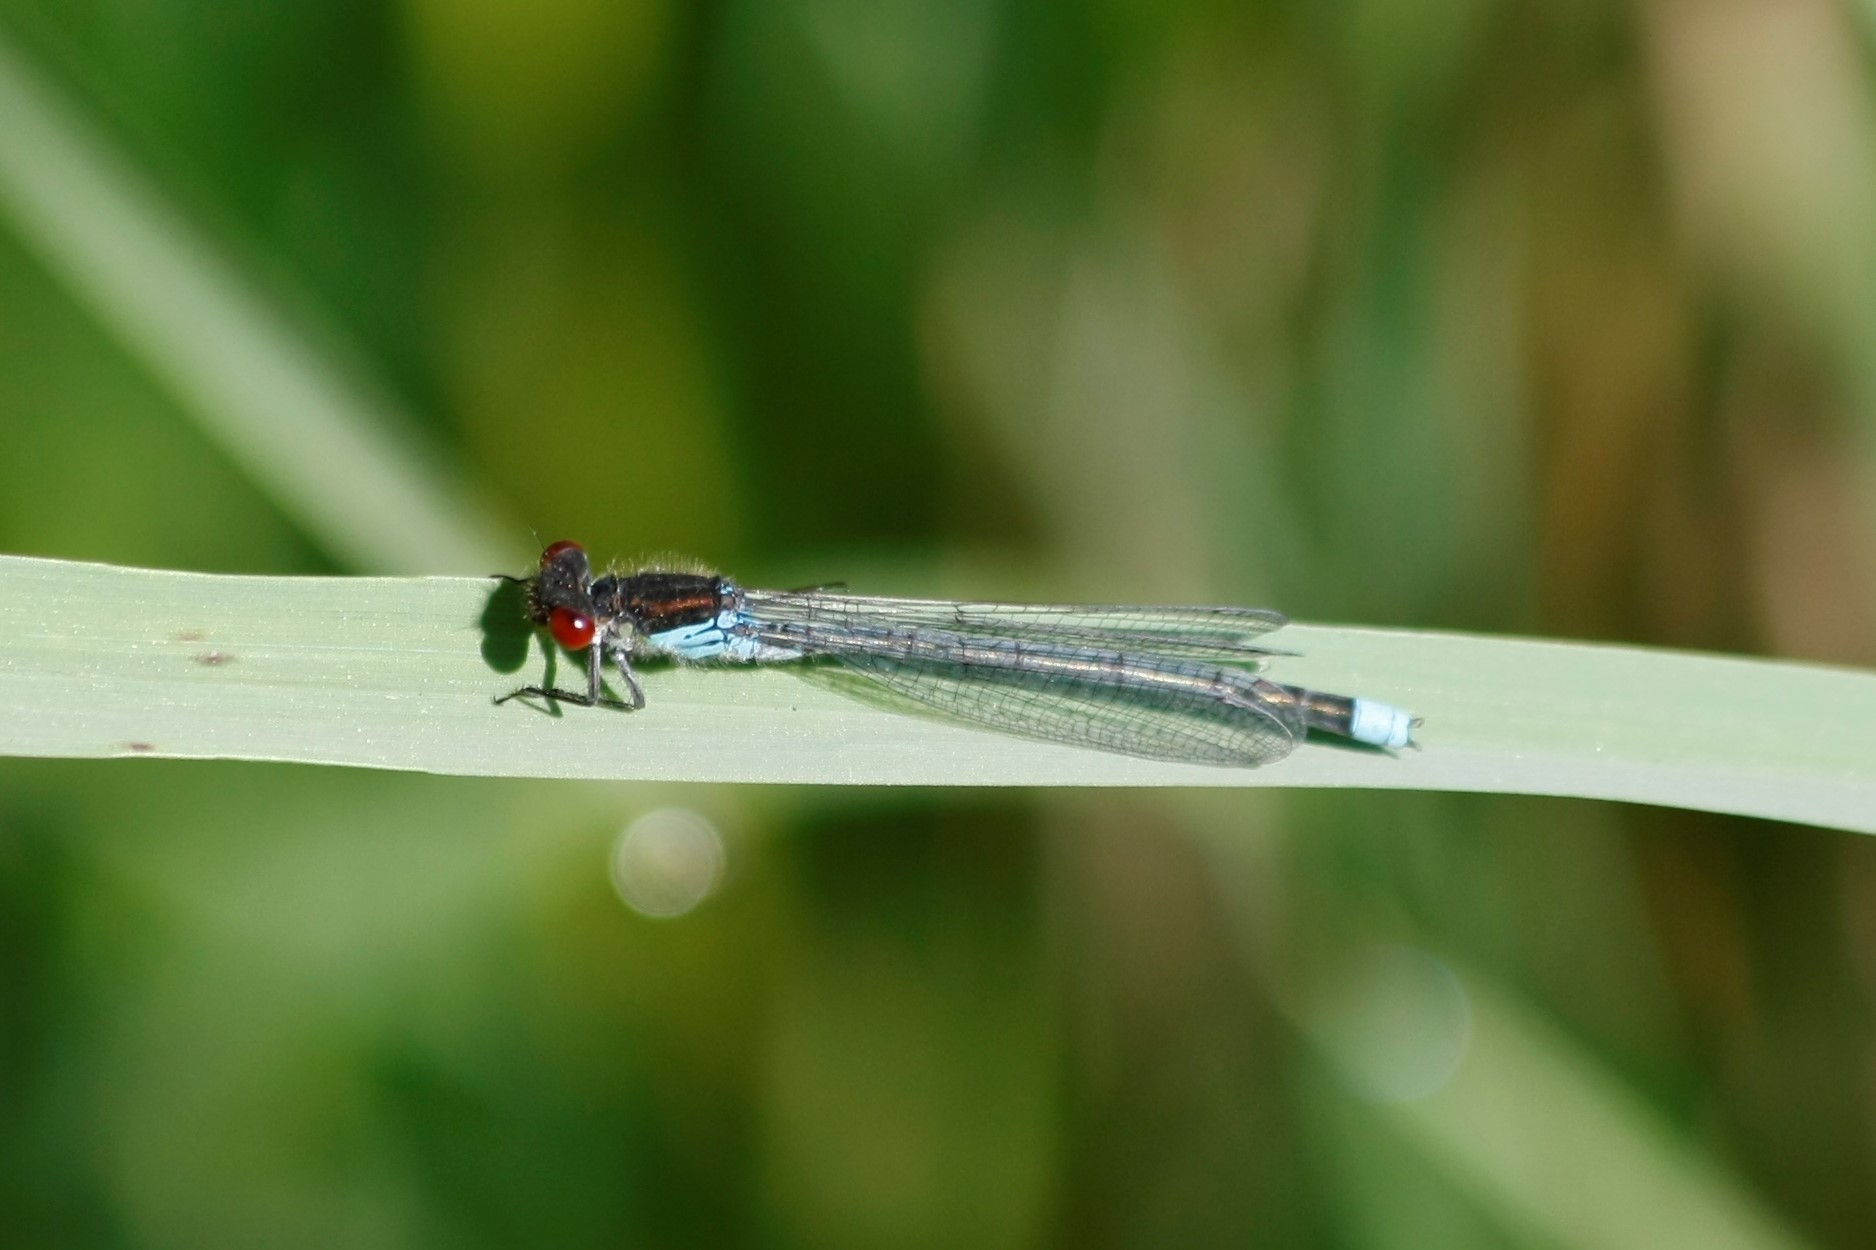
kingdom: Animalia
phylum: Arthropoda
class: Insecta
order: Odonata
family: Coenagrionidae
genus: Erythromma
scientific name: Erythromma najas
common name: Red-eyed damselfly
